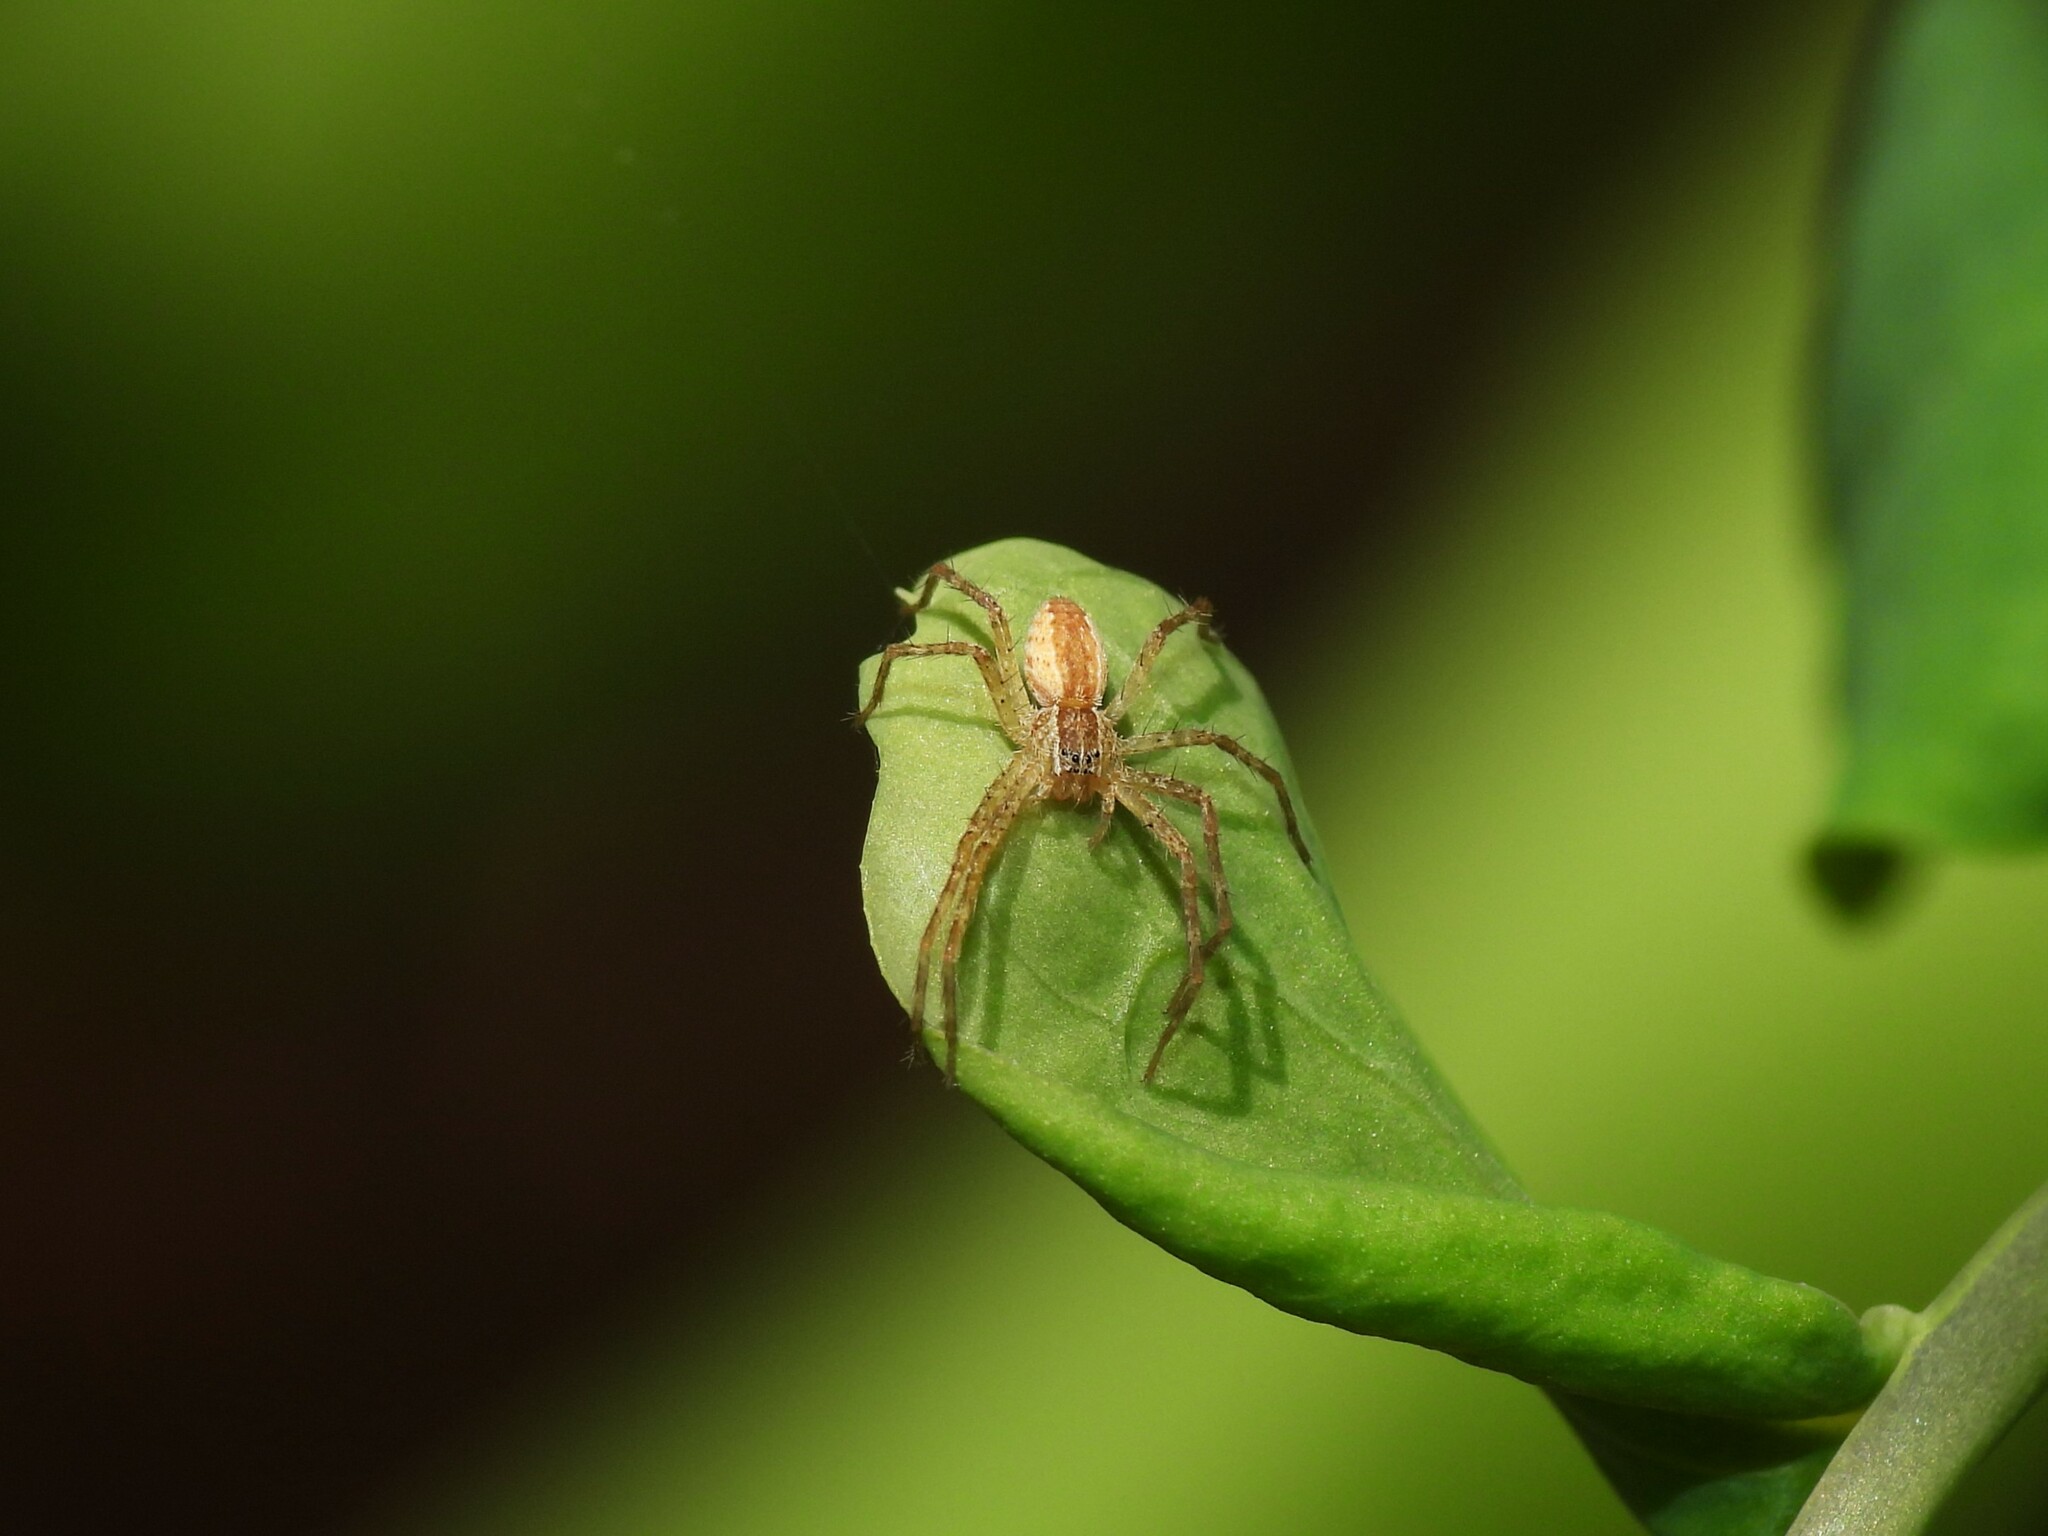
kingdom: Animalia
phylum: Arthropoda
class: Arachnida
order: Araneae
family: Pisauridae
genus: Pisaurina
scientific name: Pisaurina mira
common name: American nursery web spider
